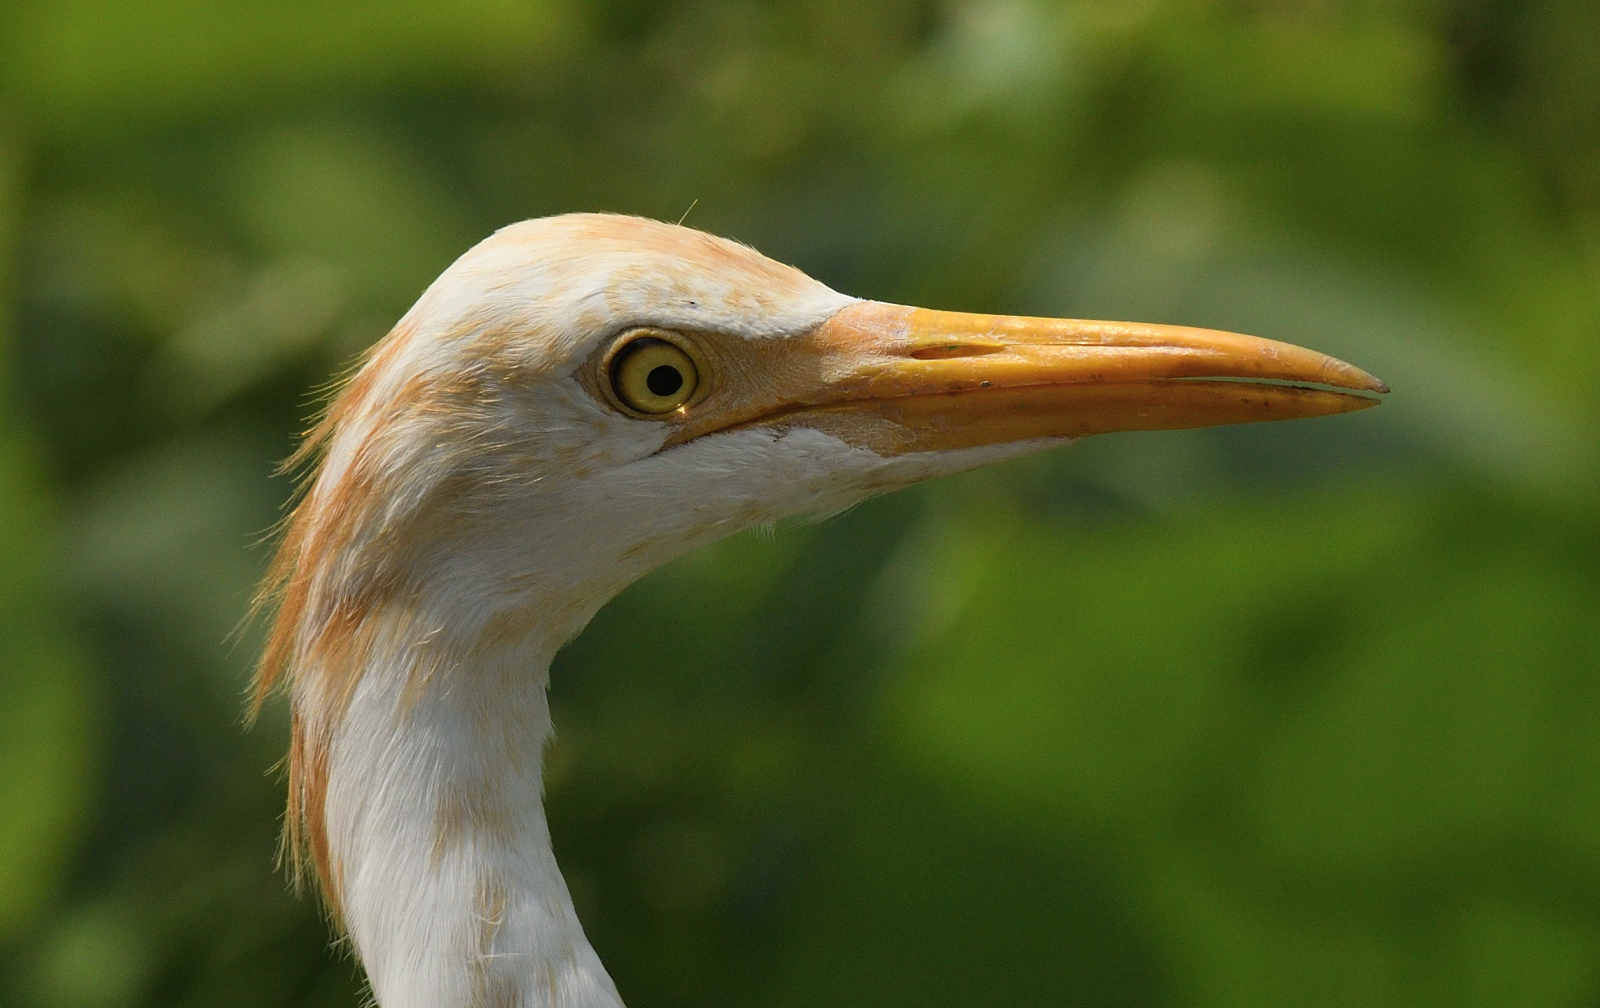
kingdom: Animalia
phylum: Chordata
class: Aves
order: Pelecaniformes
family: Ardeidae
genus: Bubulcus
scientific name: Bubulcus coromandus
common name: Eastern cattle egret
